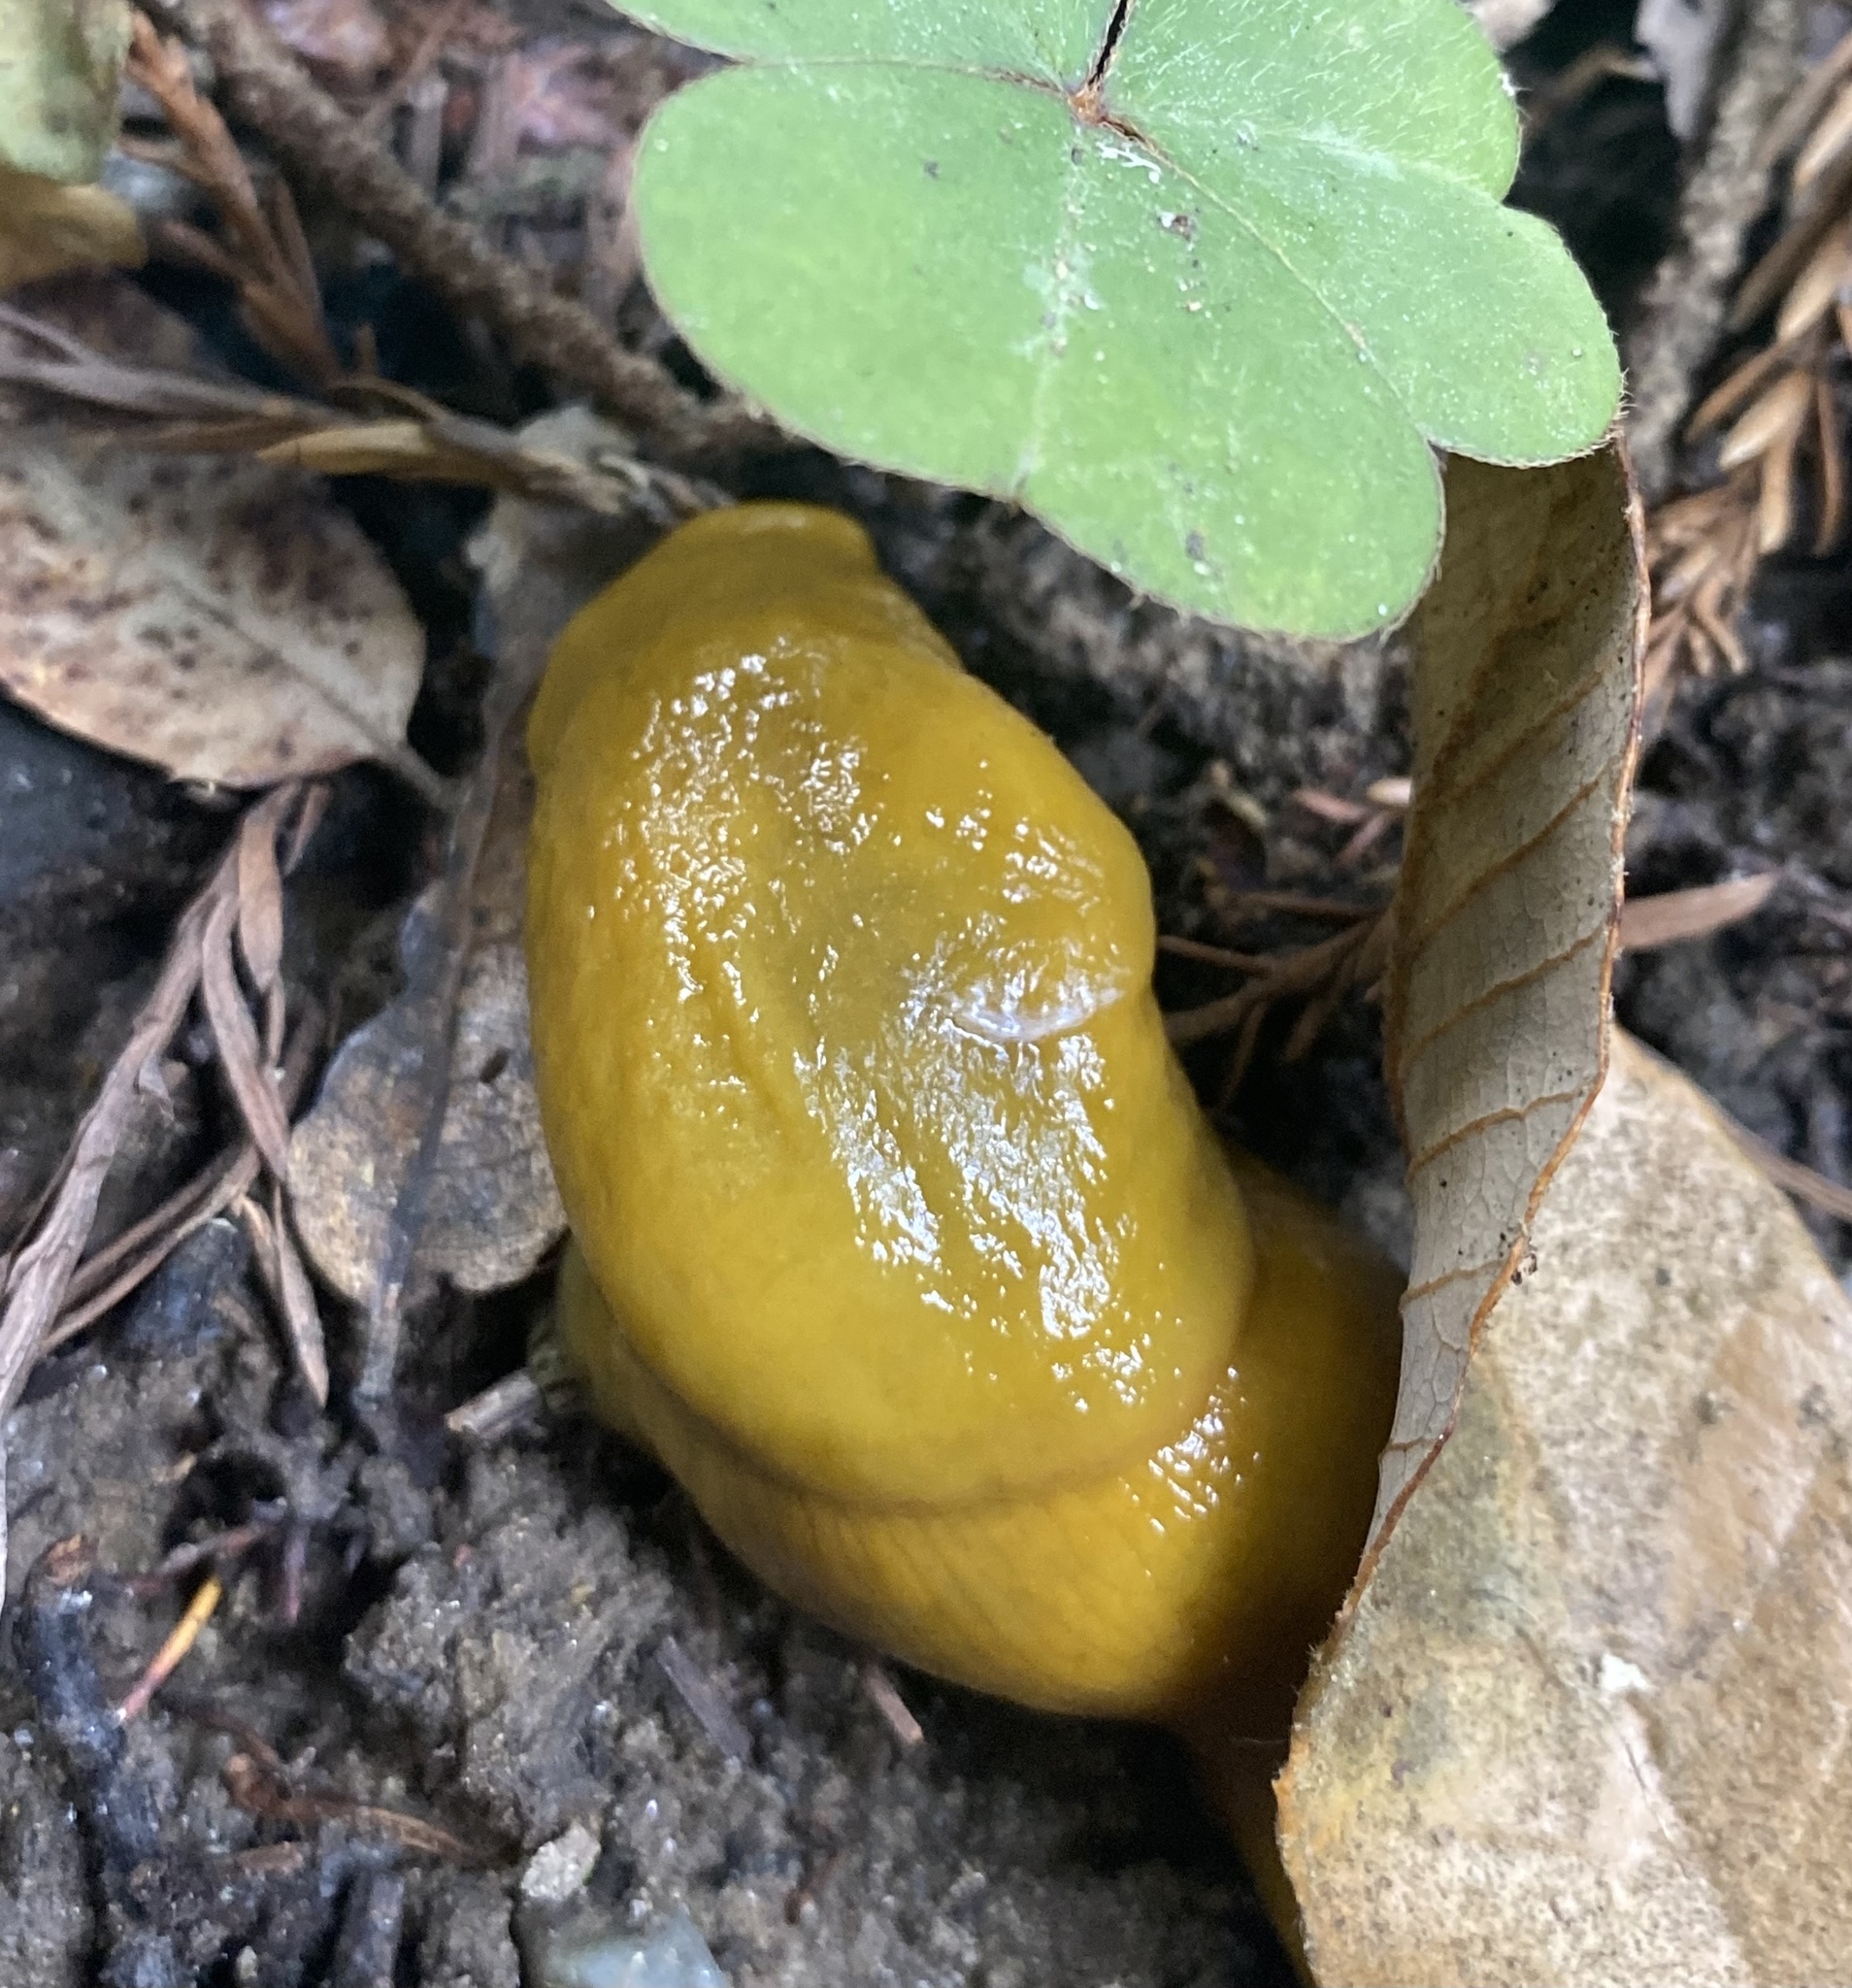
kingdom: Animalia
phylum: Mollusca
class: Gastropoda
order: Stylommatophora
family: Ariolimacidae
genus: Ariolimax
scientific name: Ariolimax dolichophallus
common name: Slender banana slug
